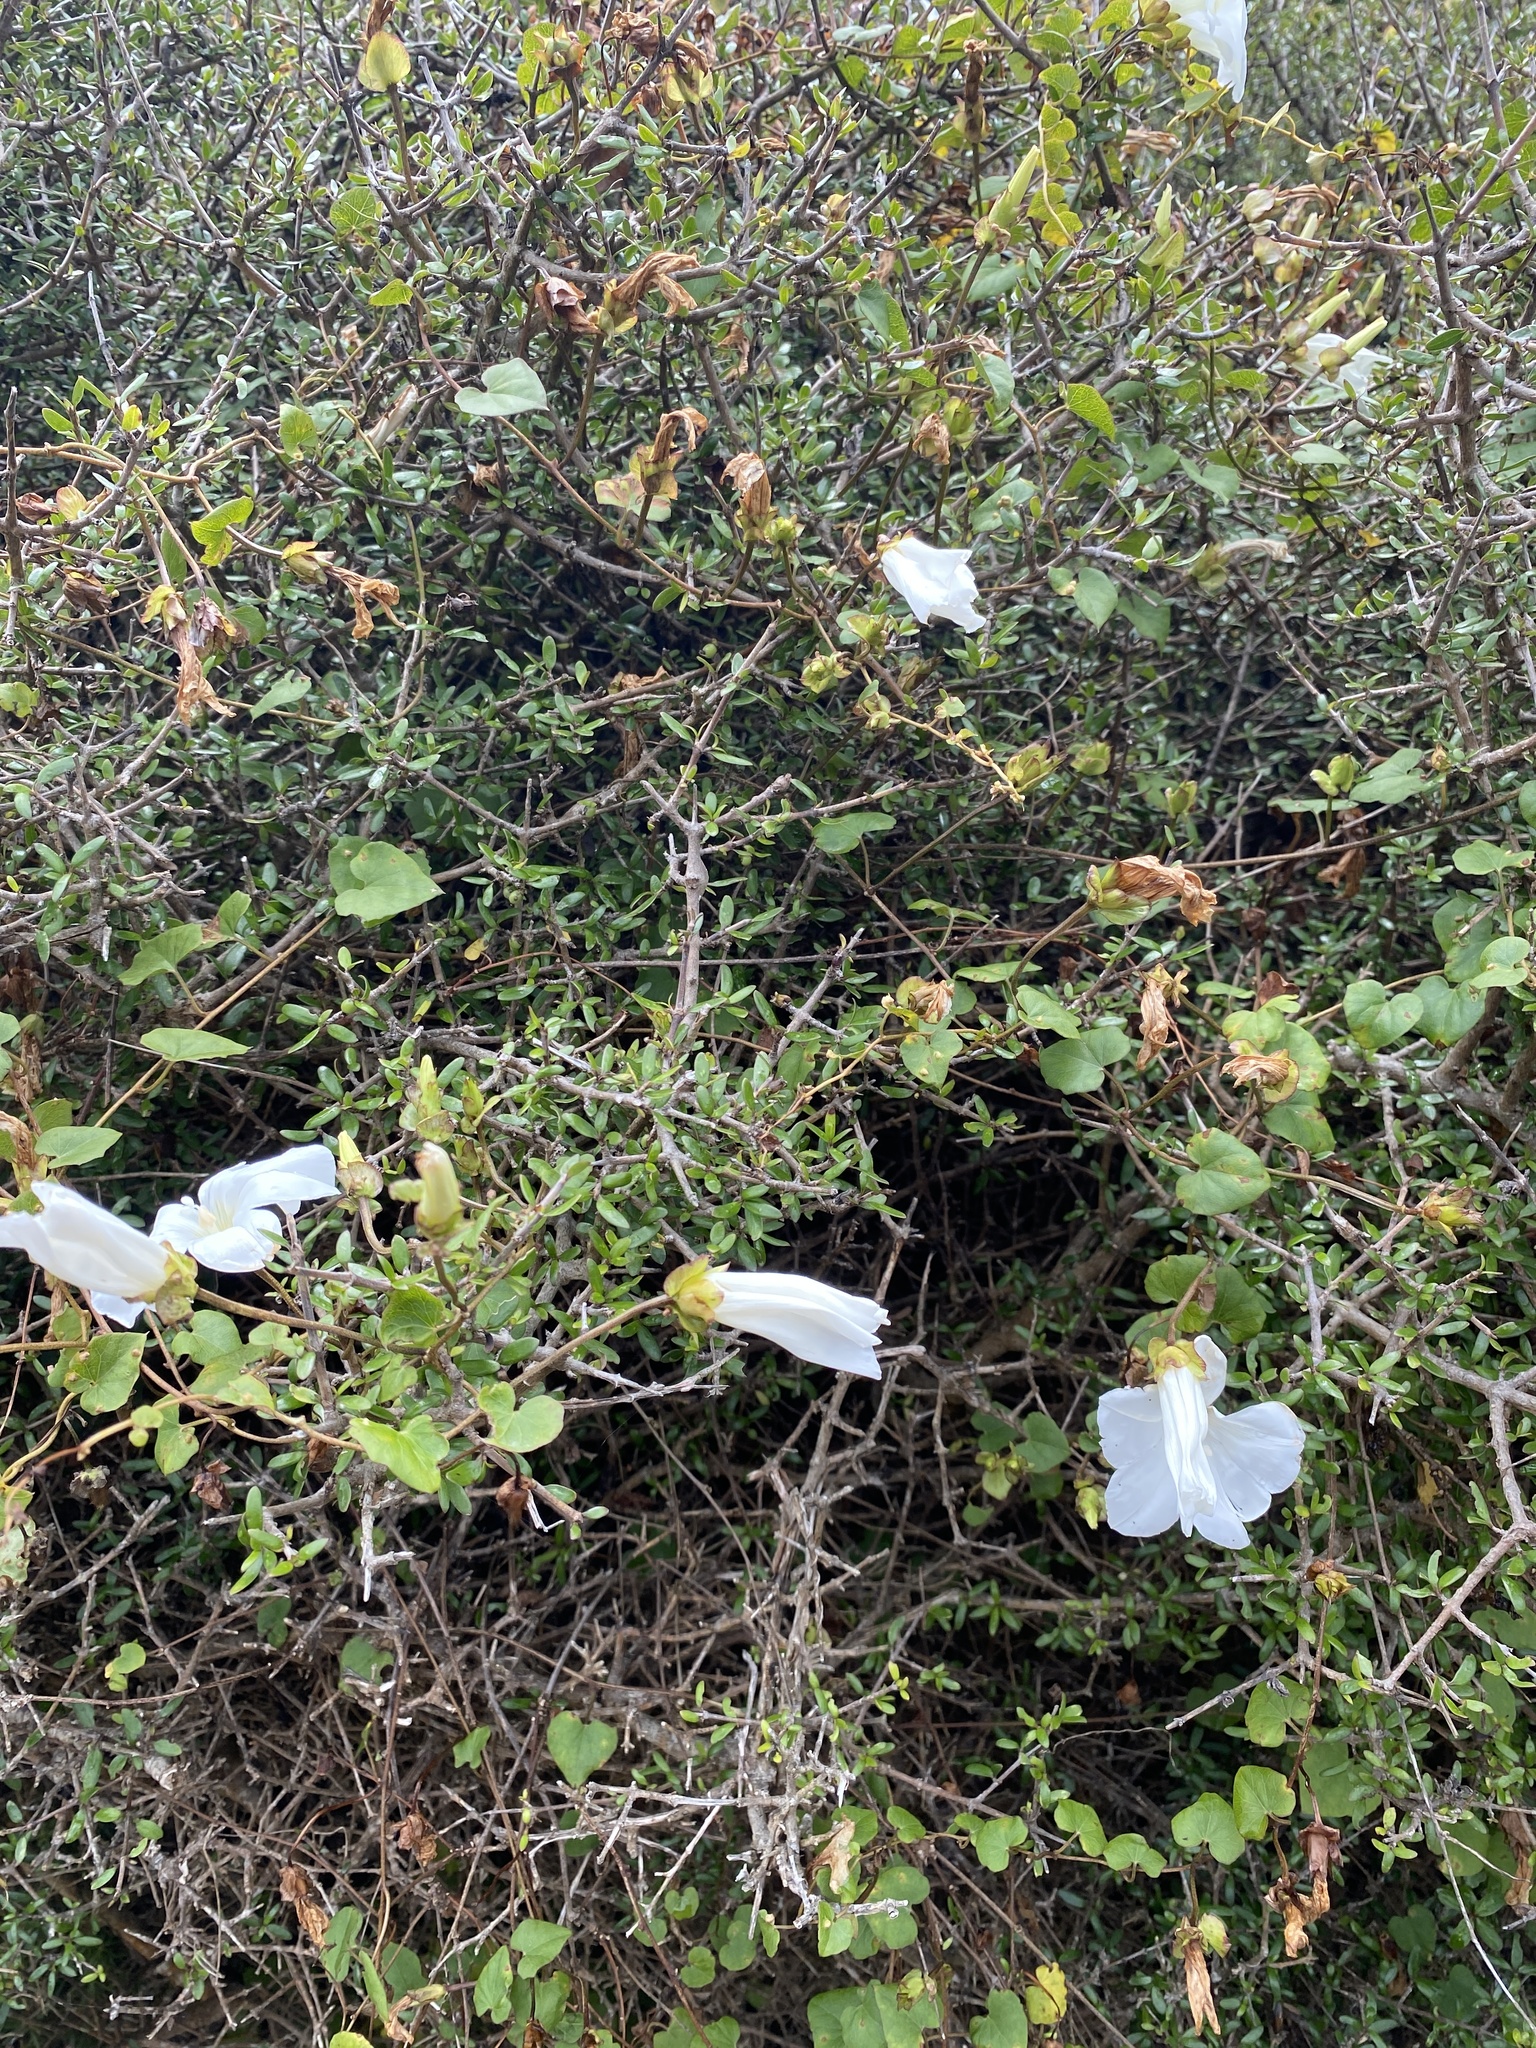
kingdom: Plantae
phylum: Tracheophyta
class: Magnoliopsida
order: Solanales
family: Convolvulaceae
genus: Calystegia
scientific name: Calystegia tuguriorum
